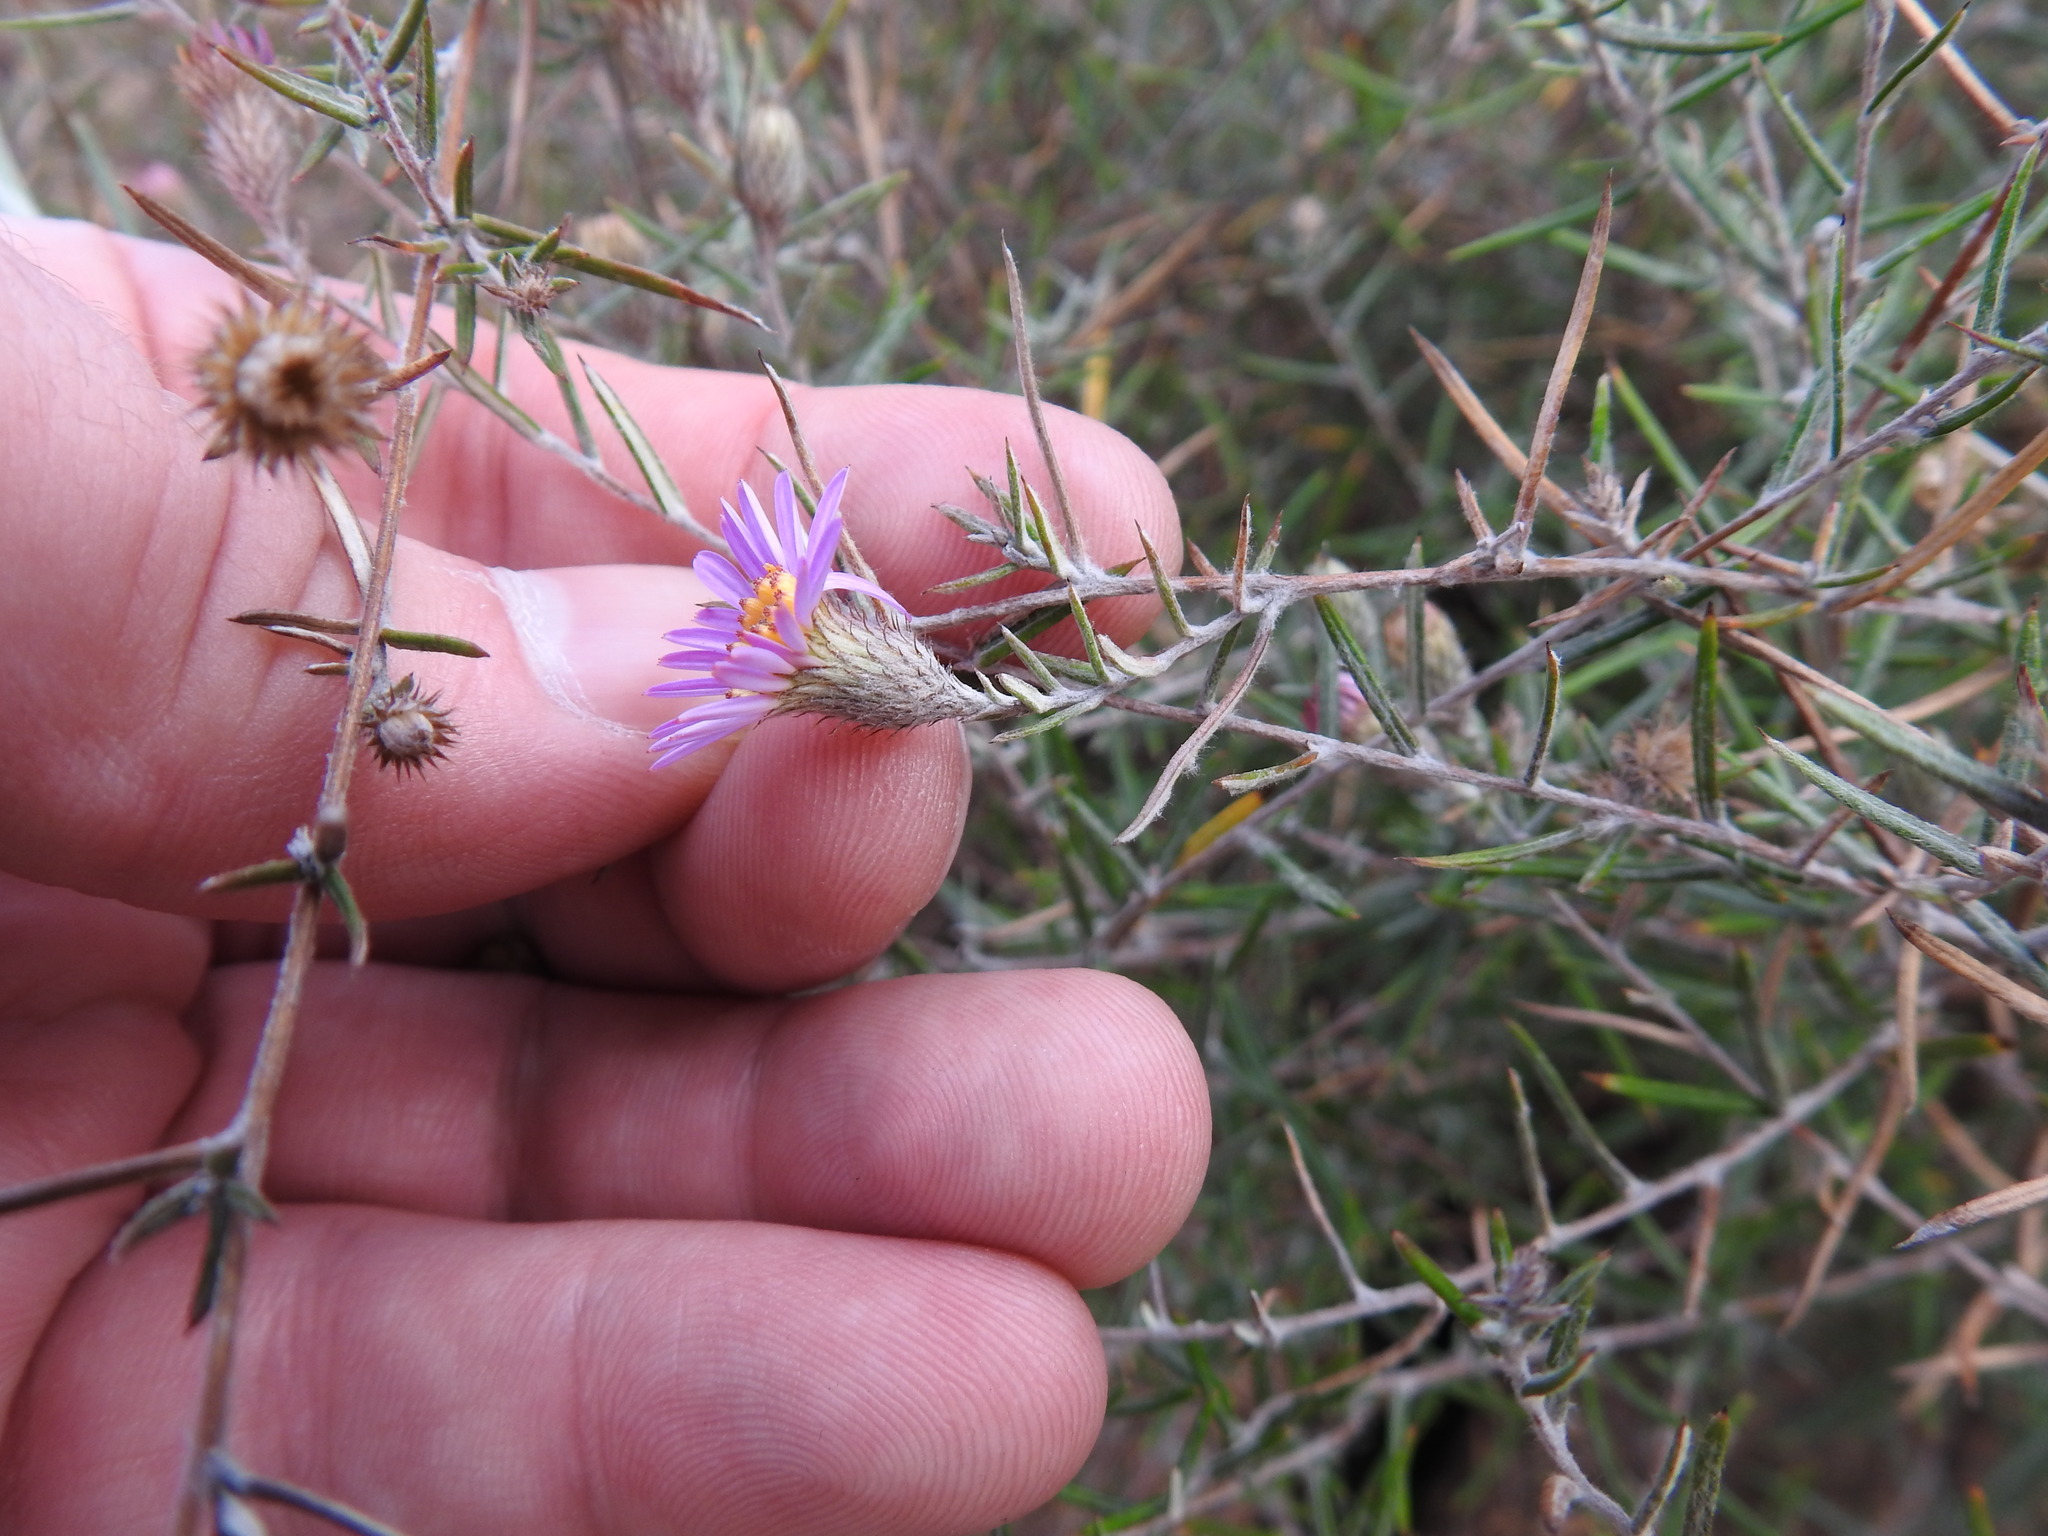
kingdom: Plantae
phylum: Tracheophyta
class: Magnoliopsida
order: Asterales
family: Asteraceae
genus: Athrixia
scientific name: Athrixia elata
